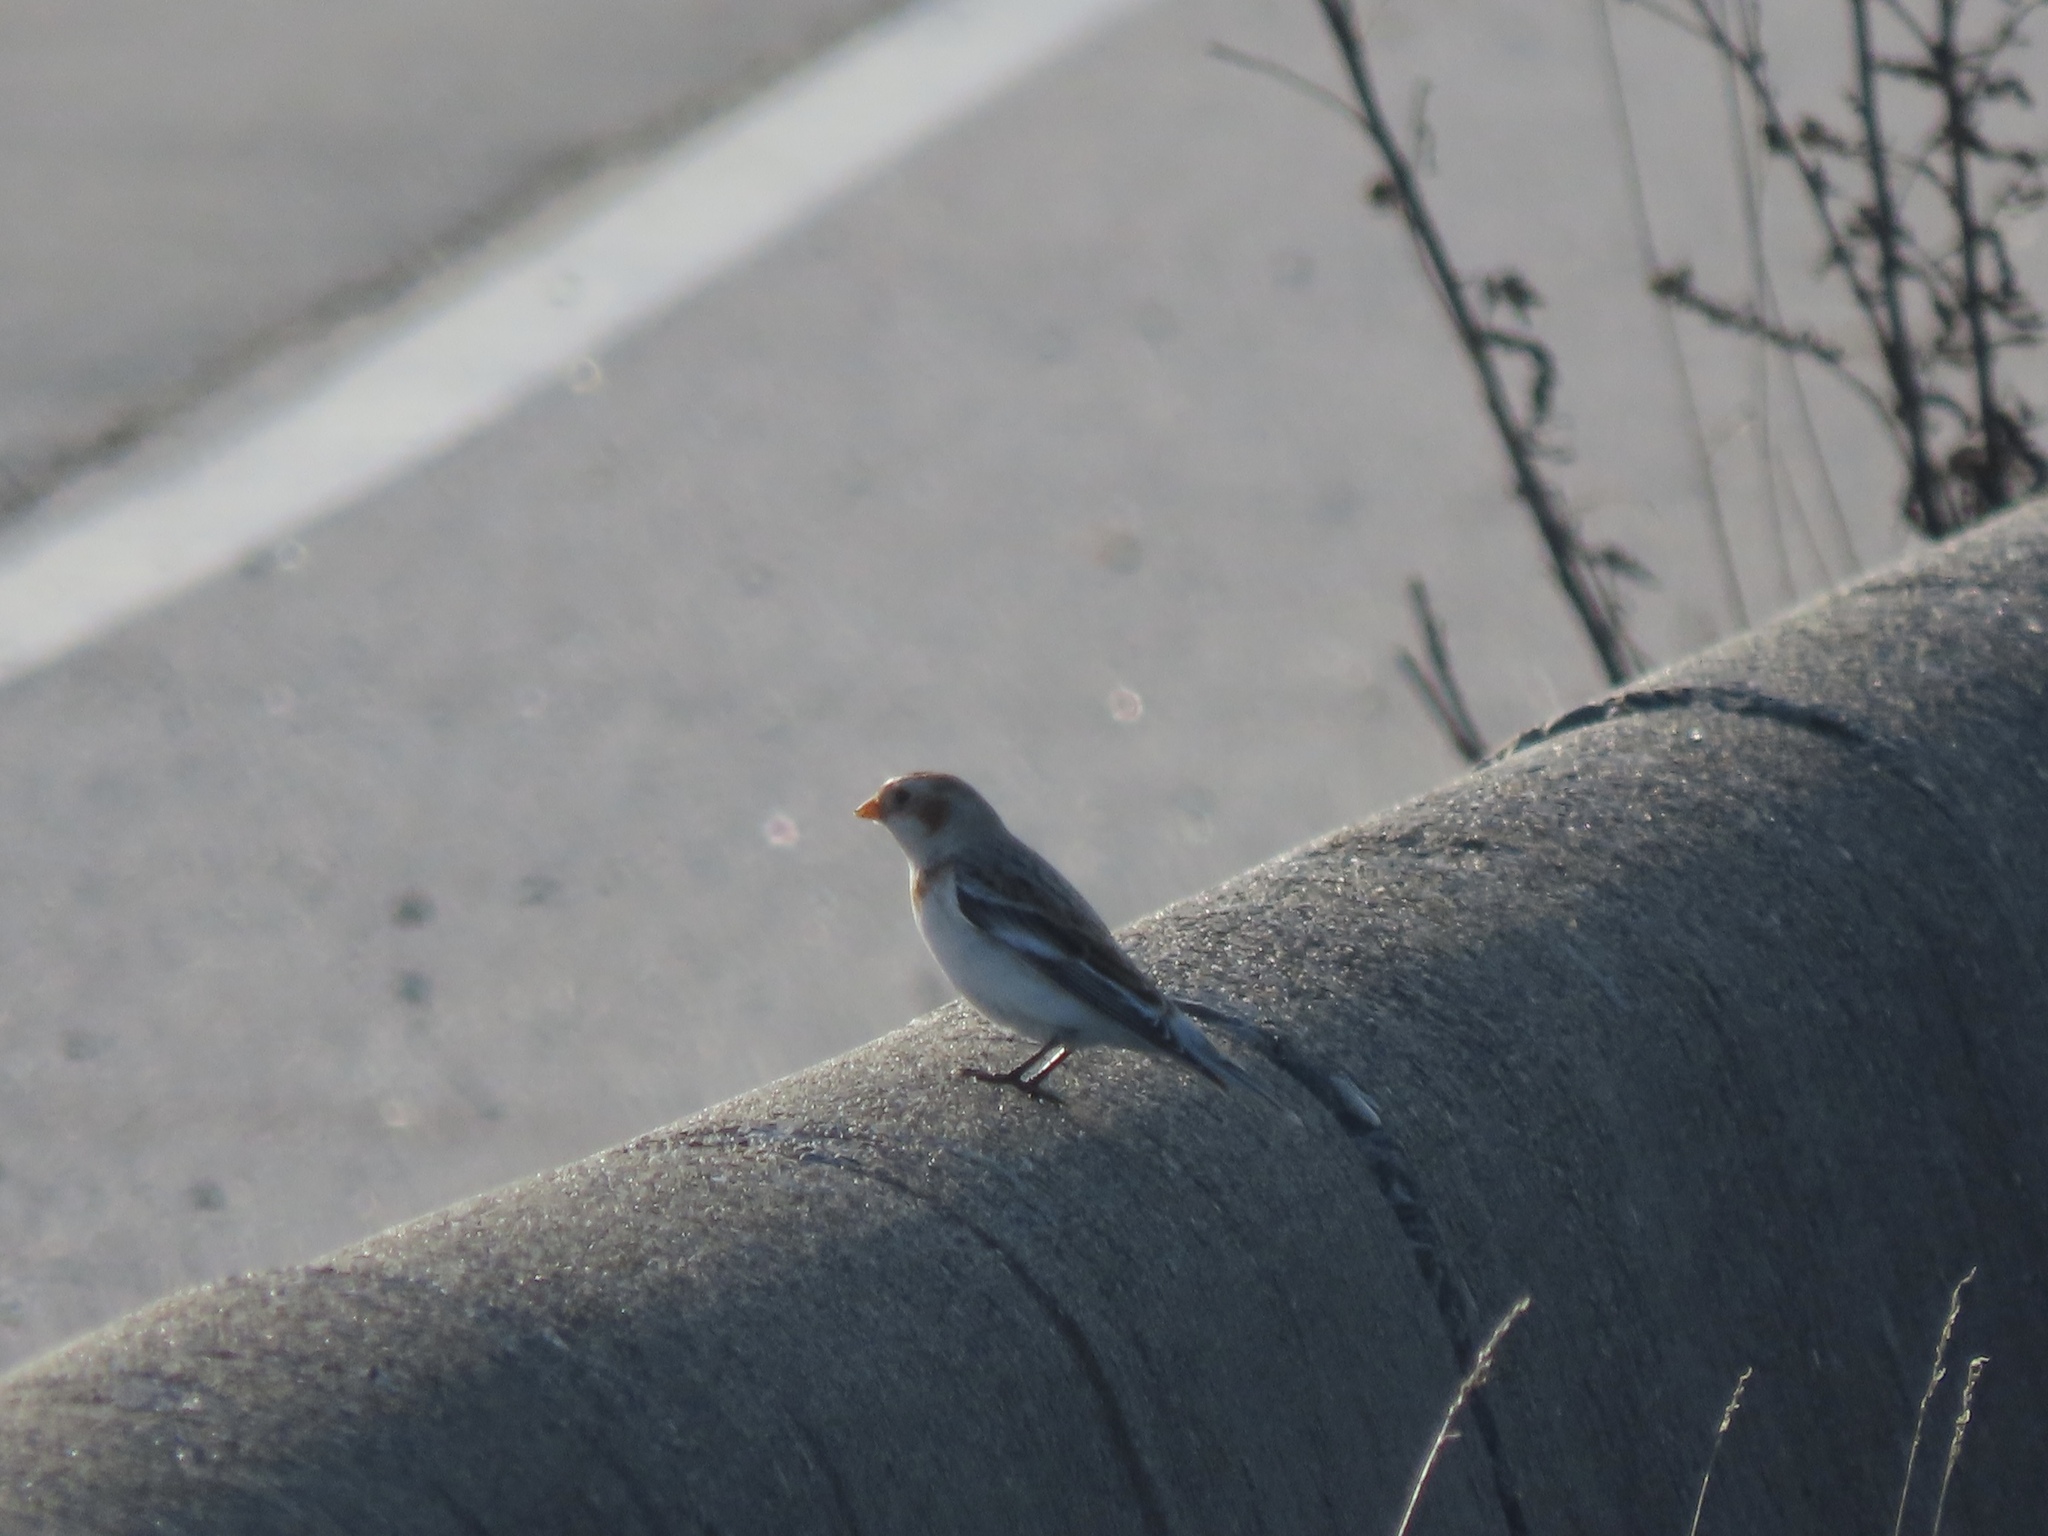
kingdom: Animalia
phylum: Chordata
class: Aves
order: Passeriformes
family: Calcariidae
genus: Plectrophenax
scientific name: Plectrophenax nivalis
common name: Snow bunting
